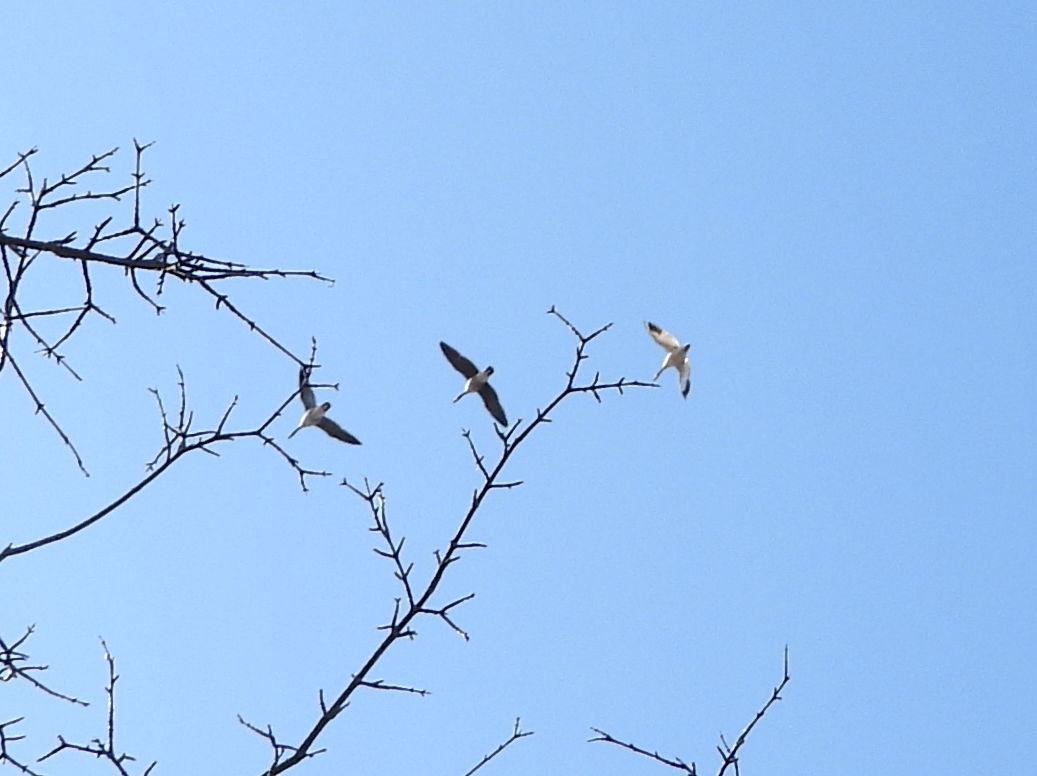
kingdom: Animalia
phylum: Chordata
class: Aves
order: Anseriformes
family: Anatidae
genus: Anser
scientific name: Anser caerulescens
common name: Snow goose
